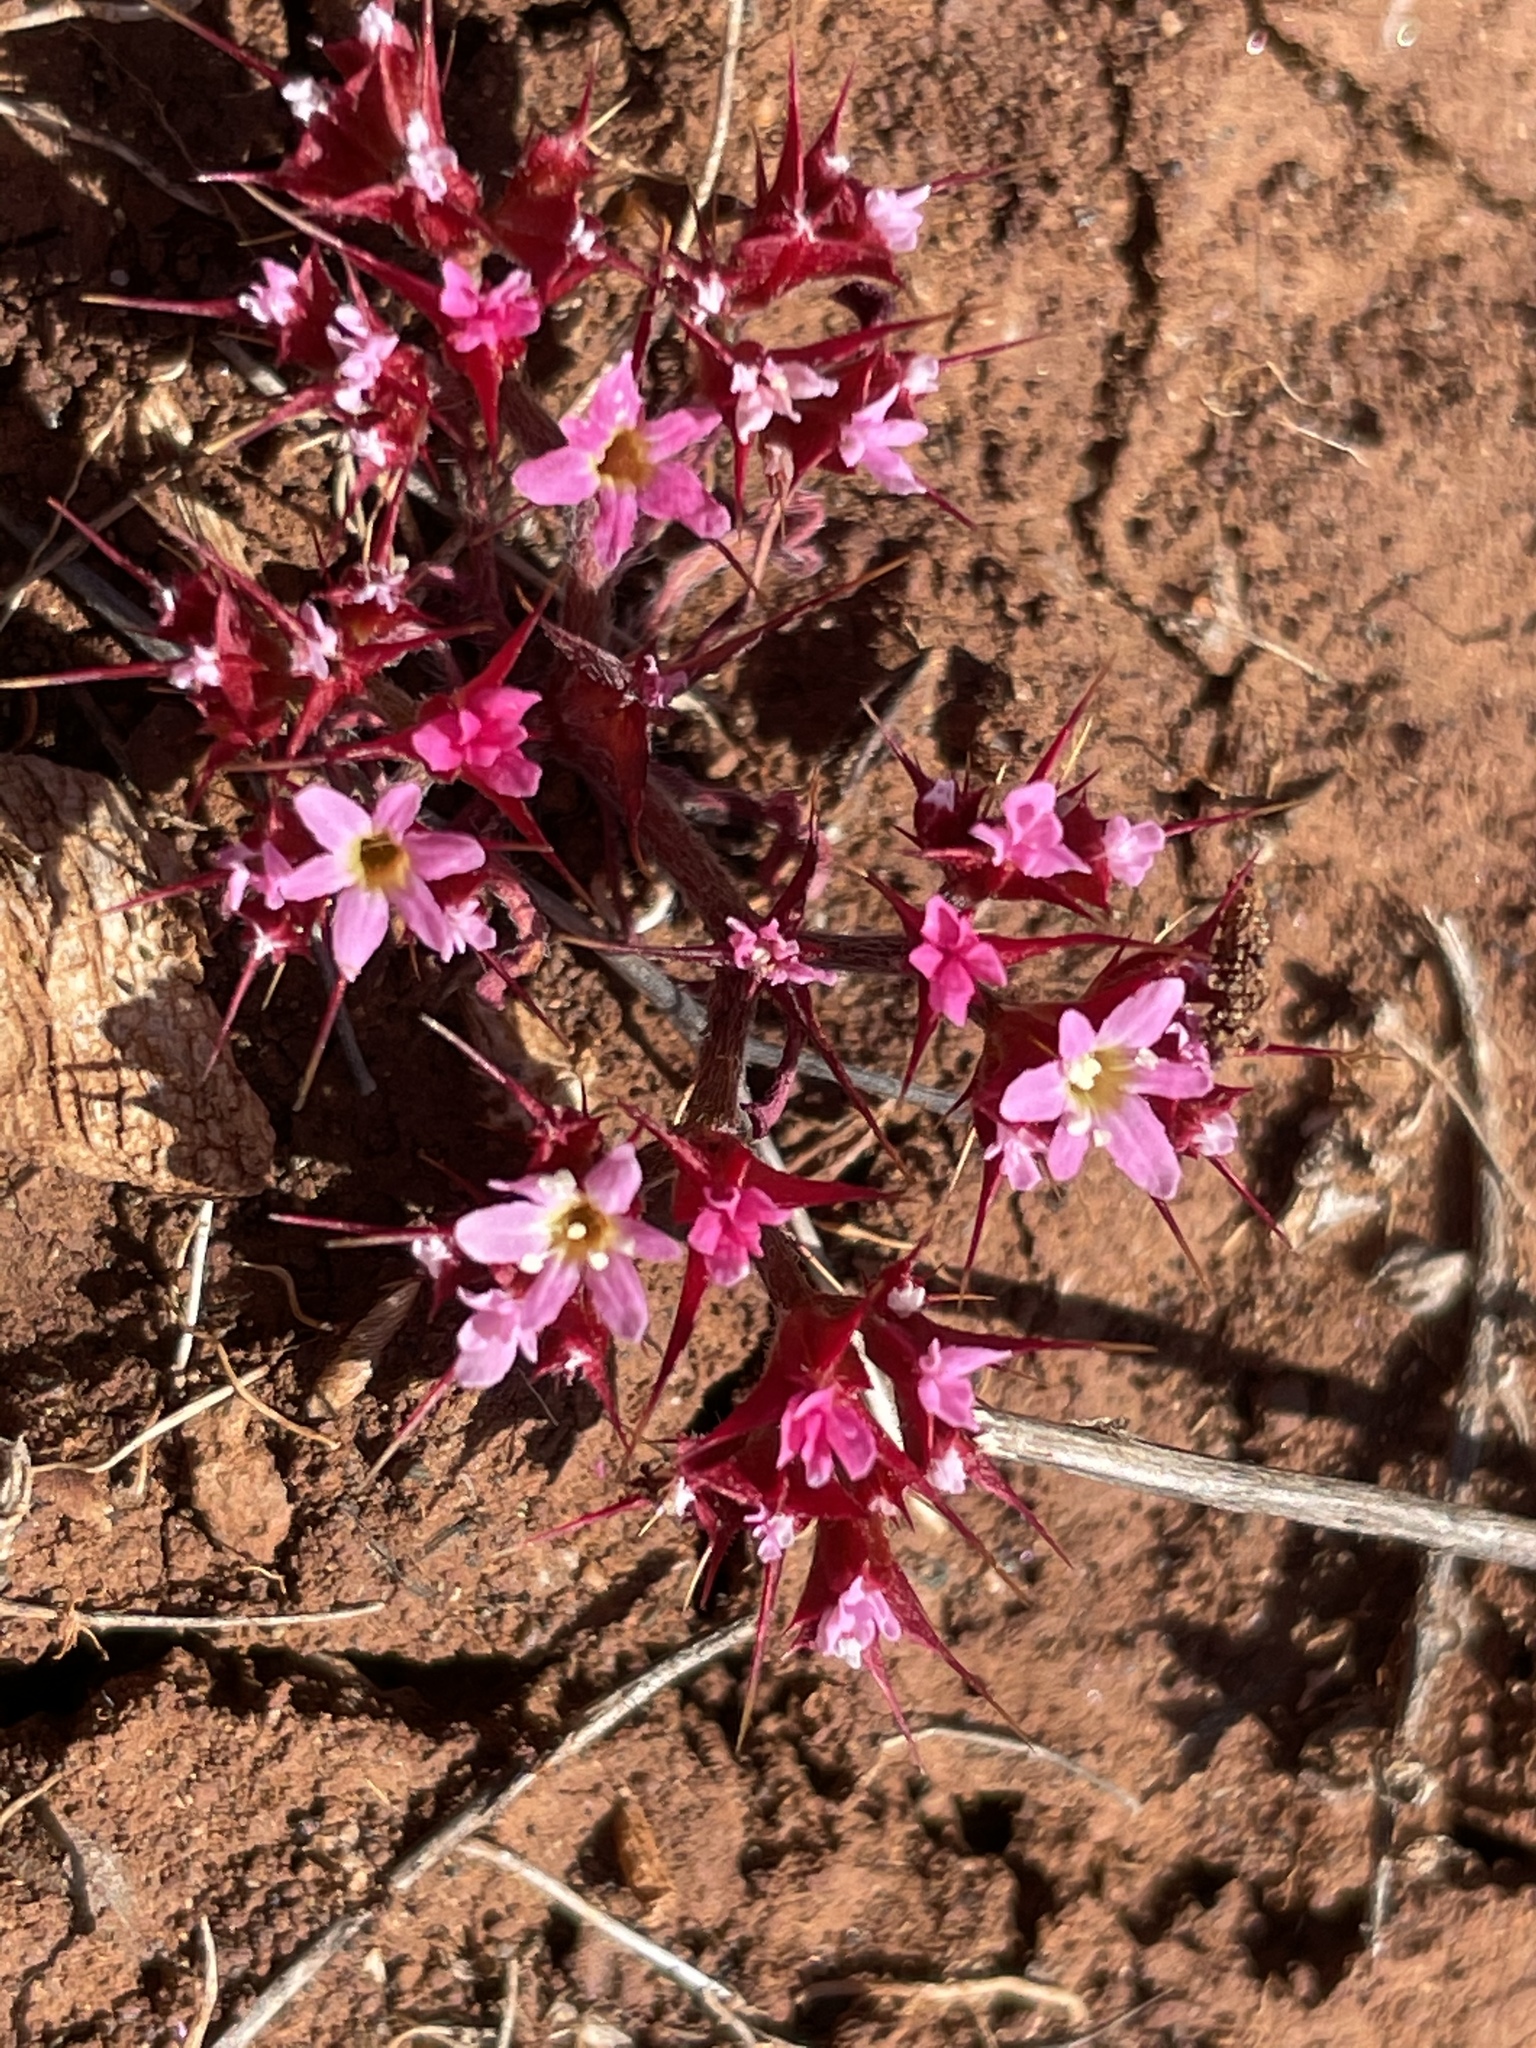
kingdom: Plantae
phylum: Tracheophyta
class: Magnoliopsida
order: Caryophyllales
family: Polygonaceae
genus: Chorizanthe
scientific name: Chorizanthe turbinata
